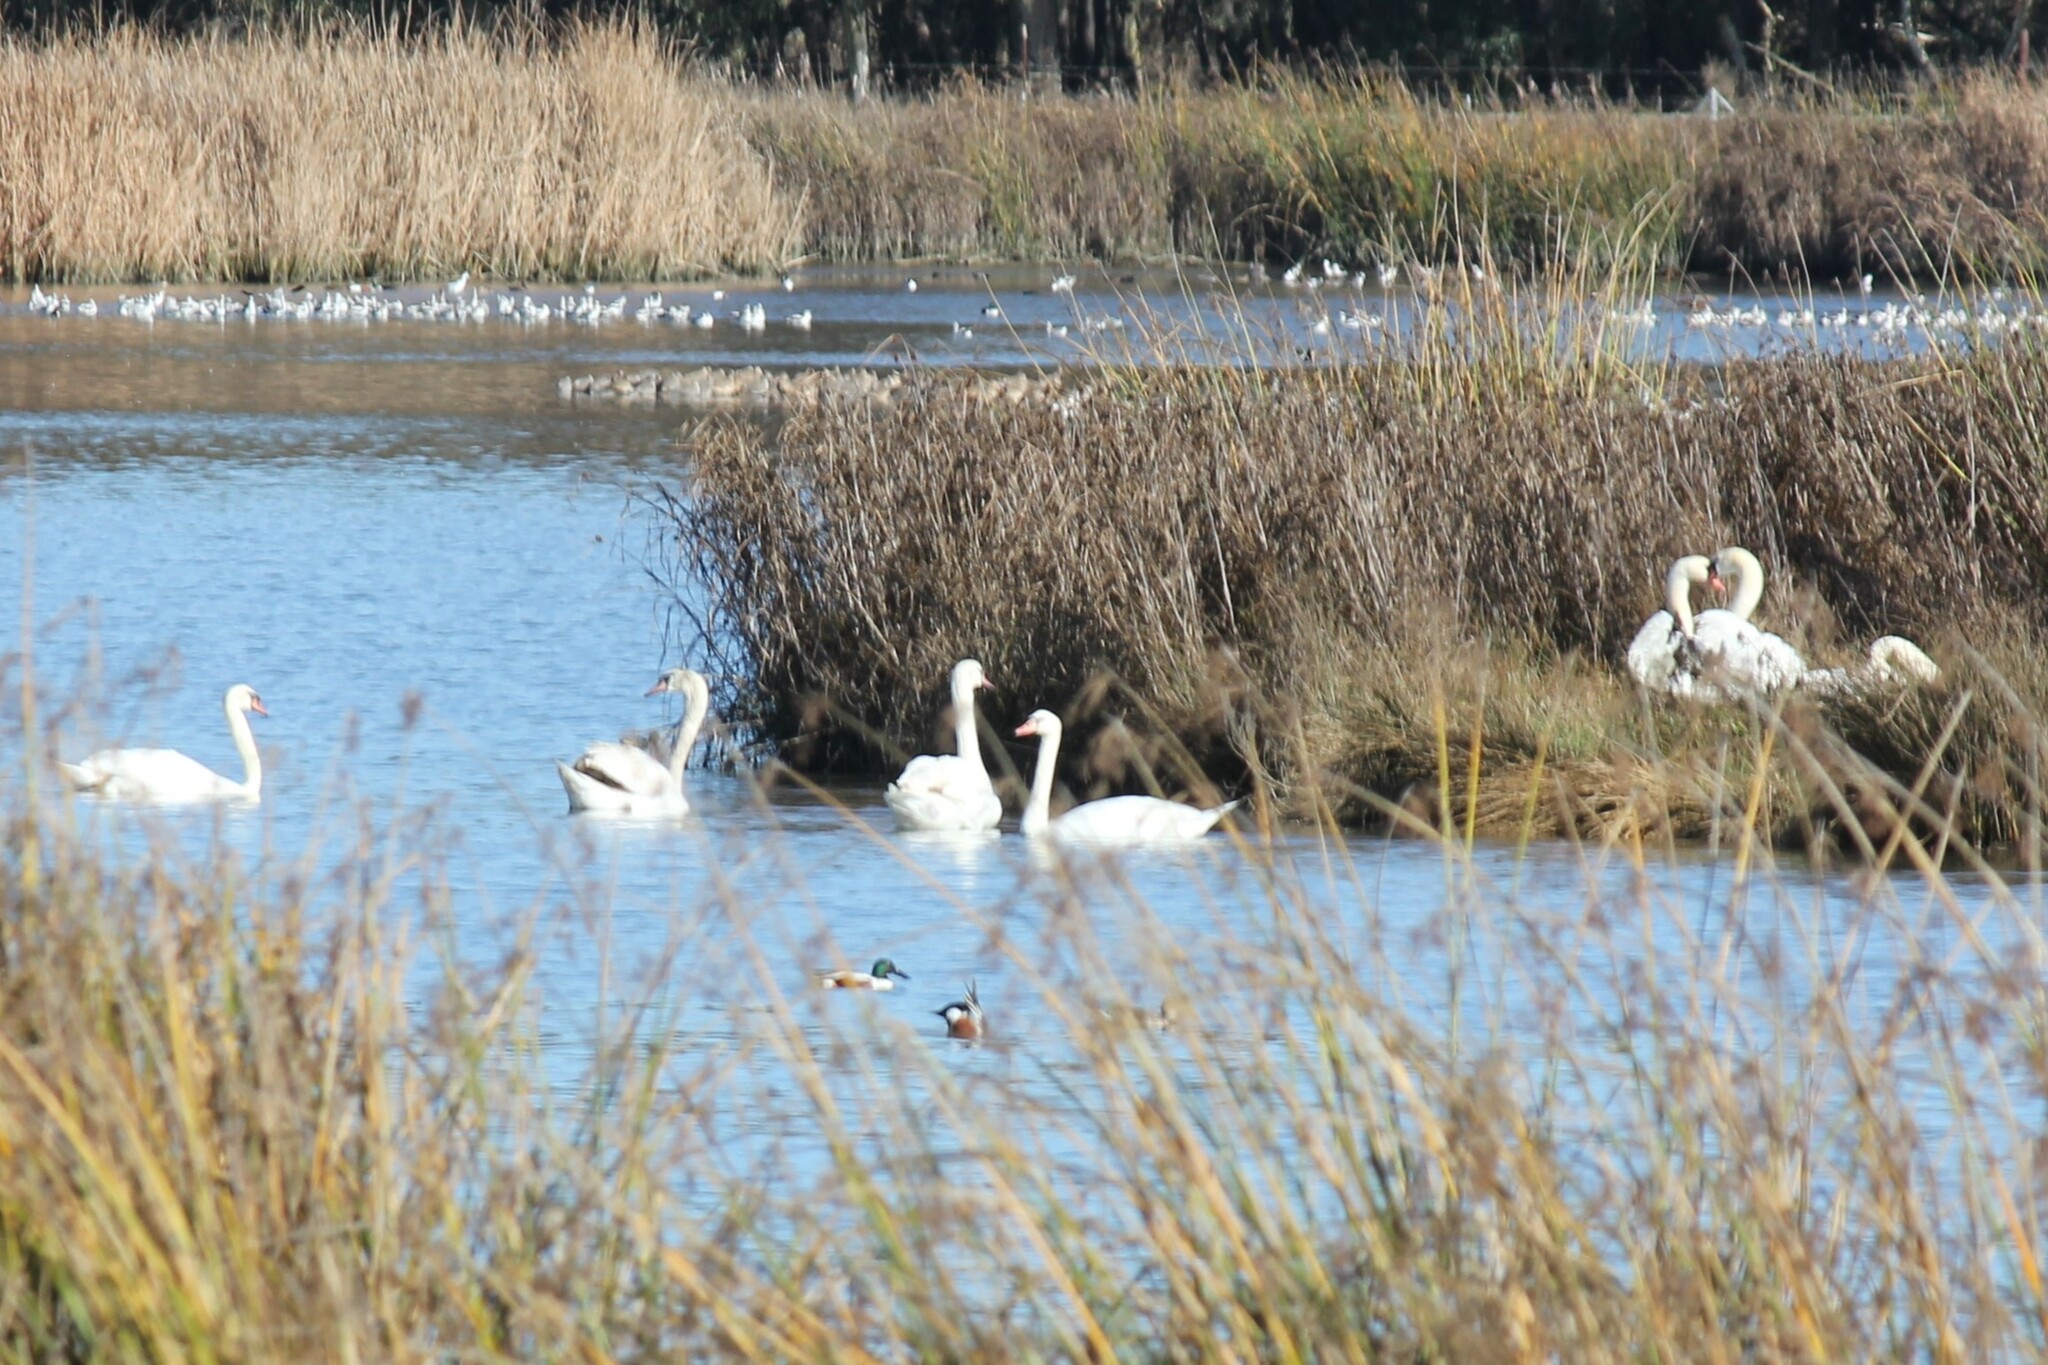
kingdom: Animalia
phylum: Chordata
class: Aves
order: Anseriformes
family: Anatidae
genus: Cygnus
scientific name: Cygnus olor
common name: Mute swan
